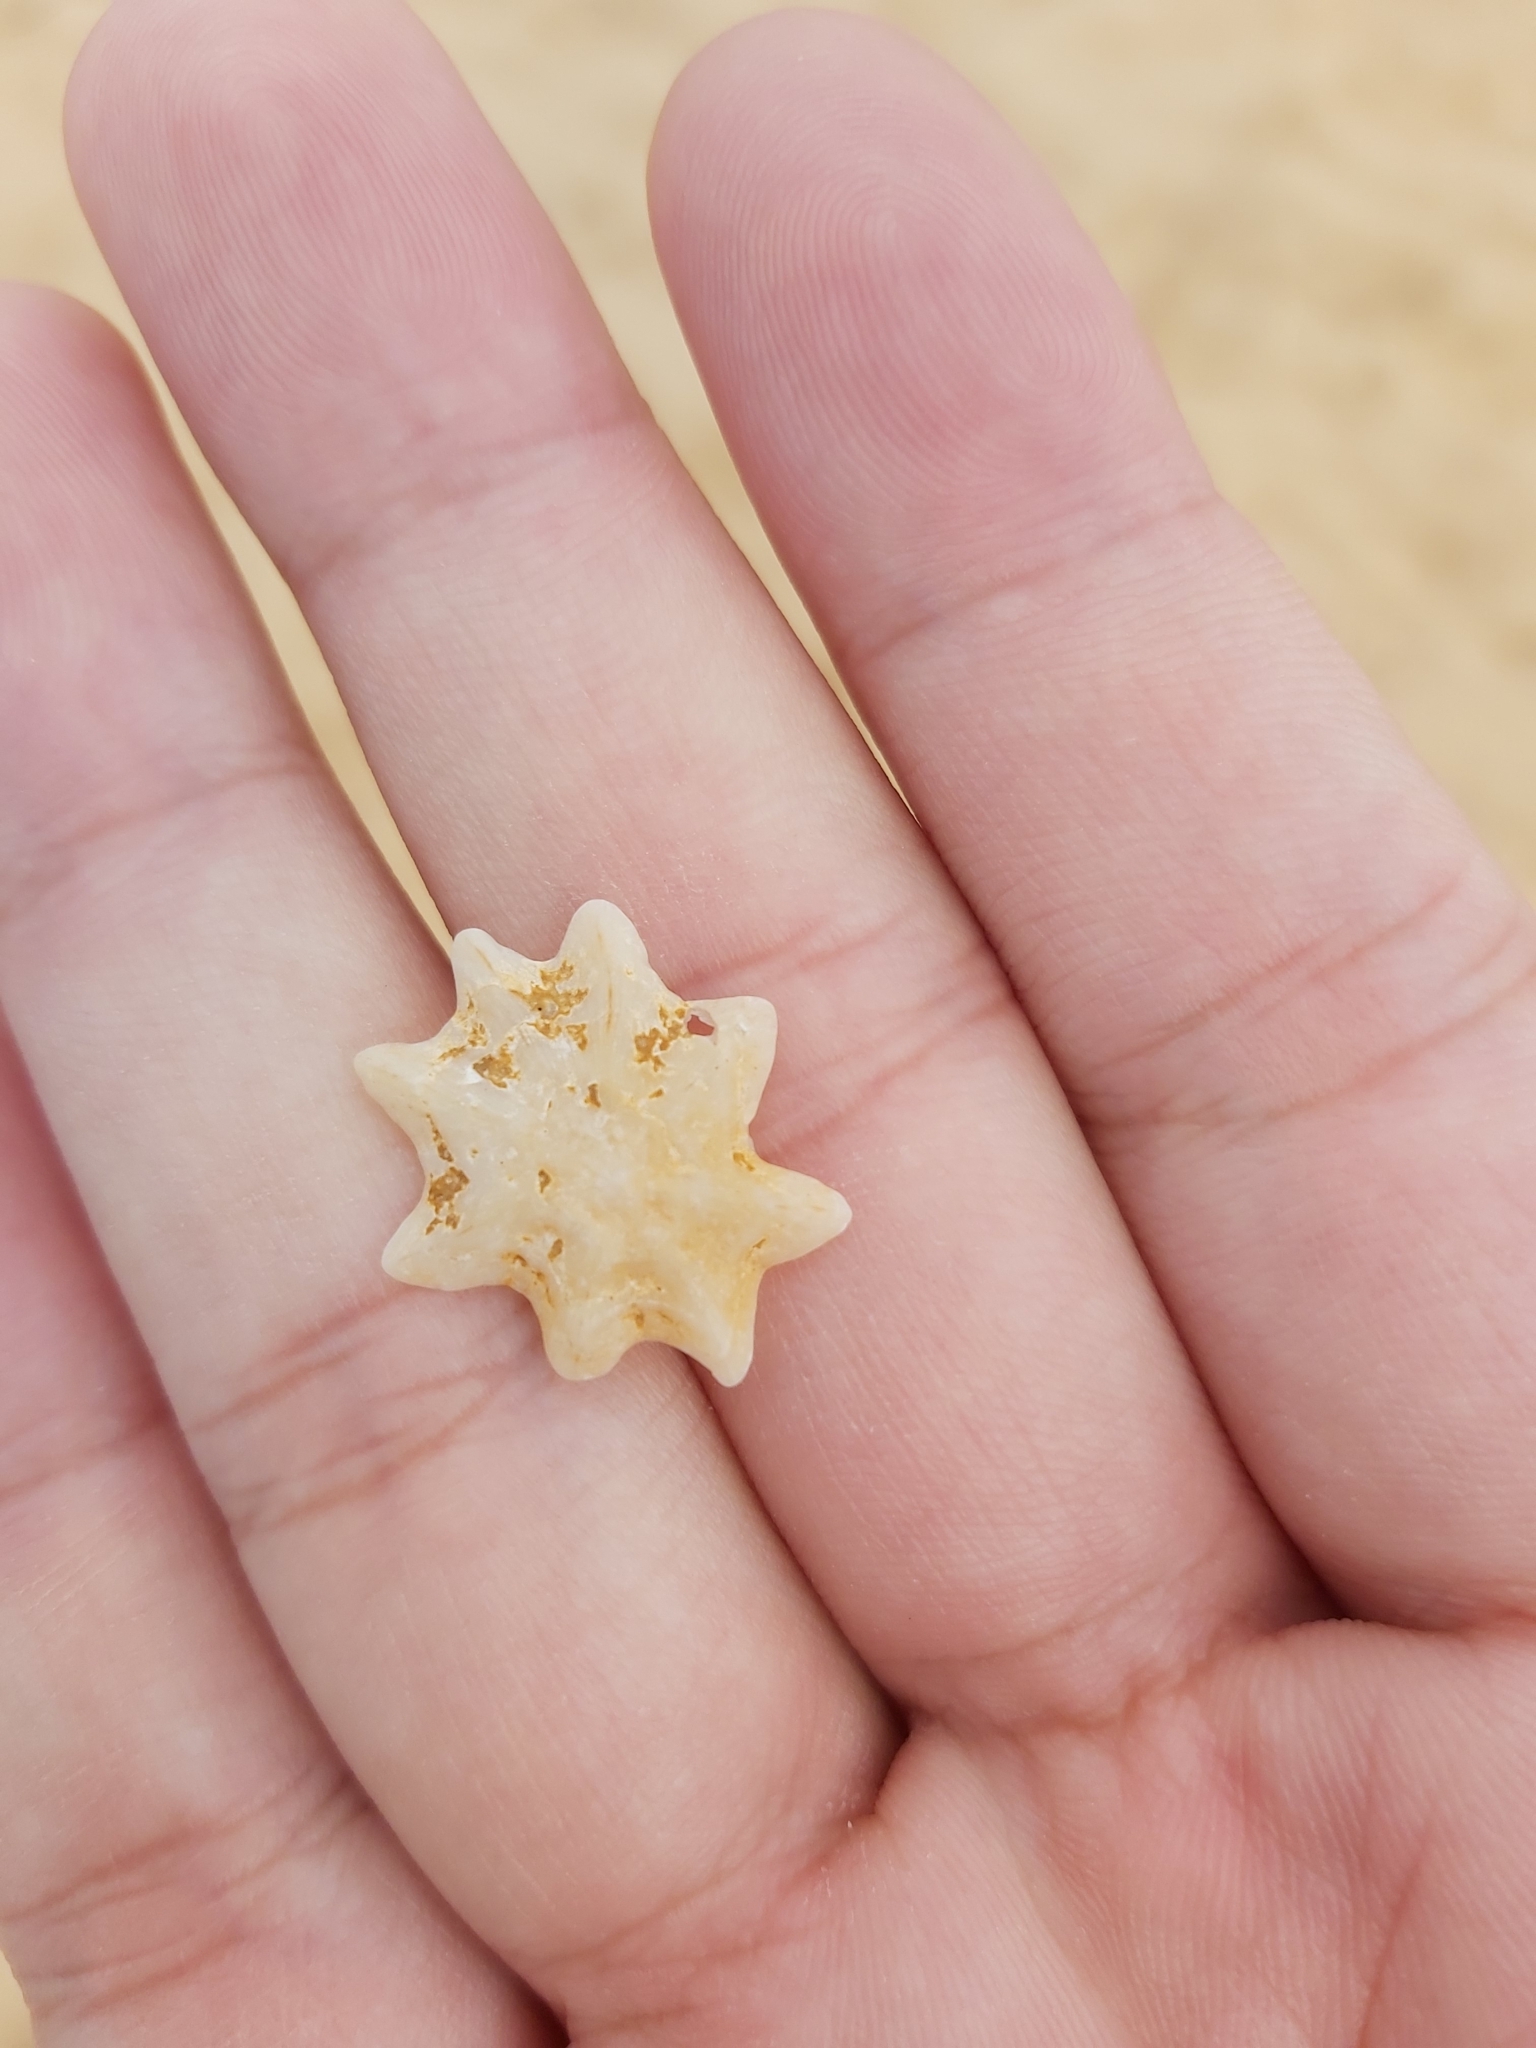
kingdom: Animalia
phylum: Mollusca
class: Gastropoda
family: Patellidae
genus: Scutellastra
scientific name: Scutellastra chapmani
